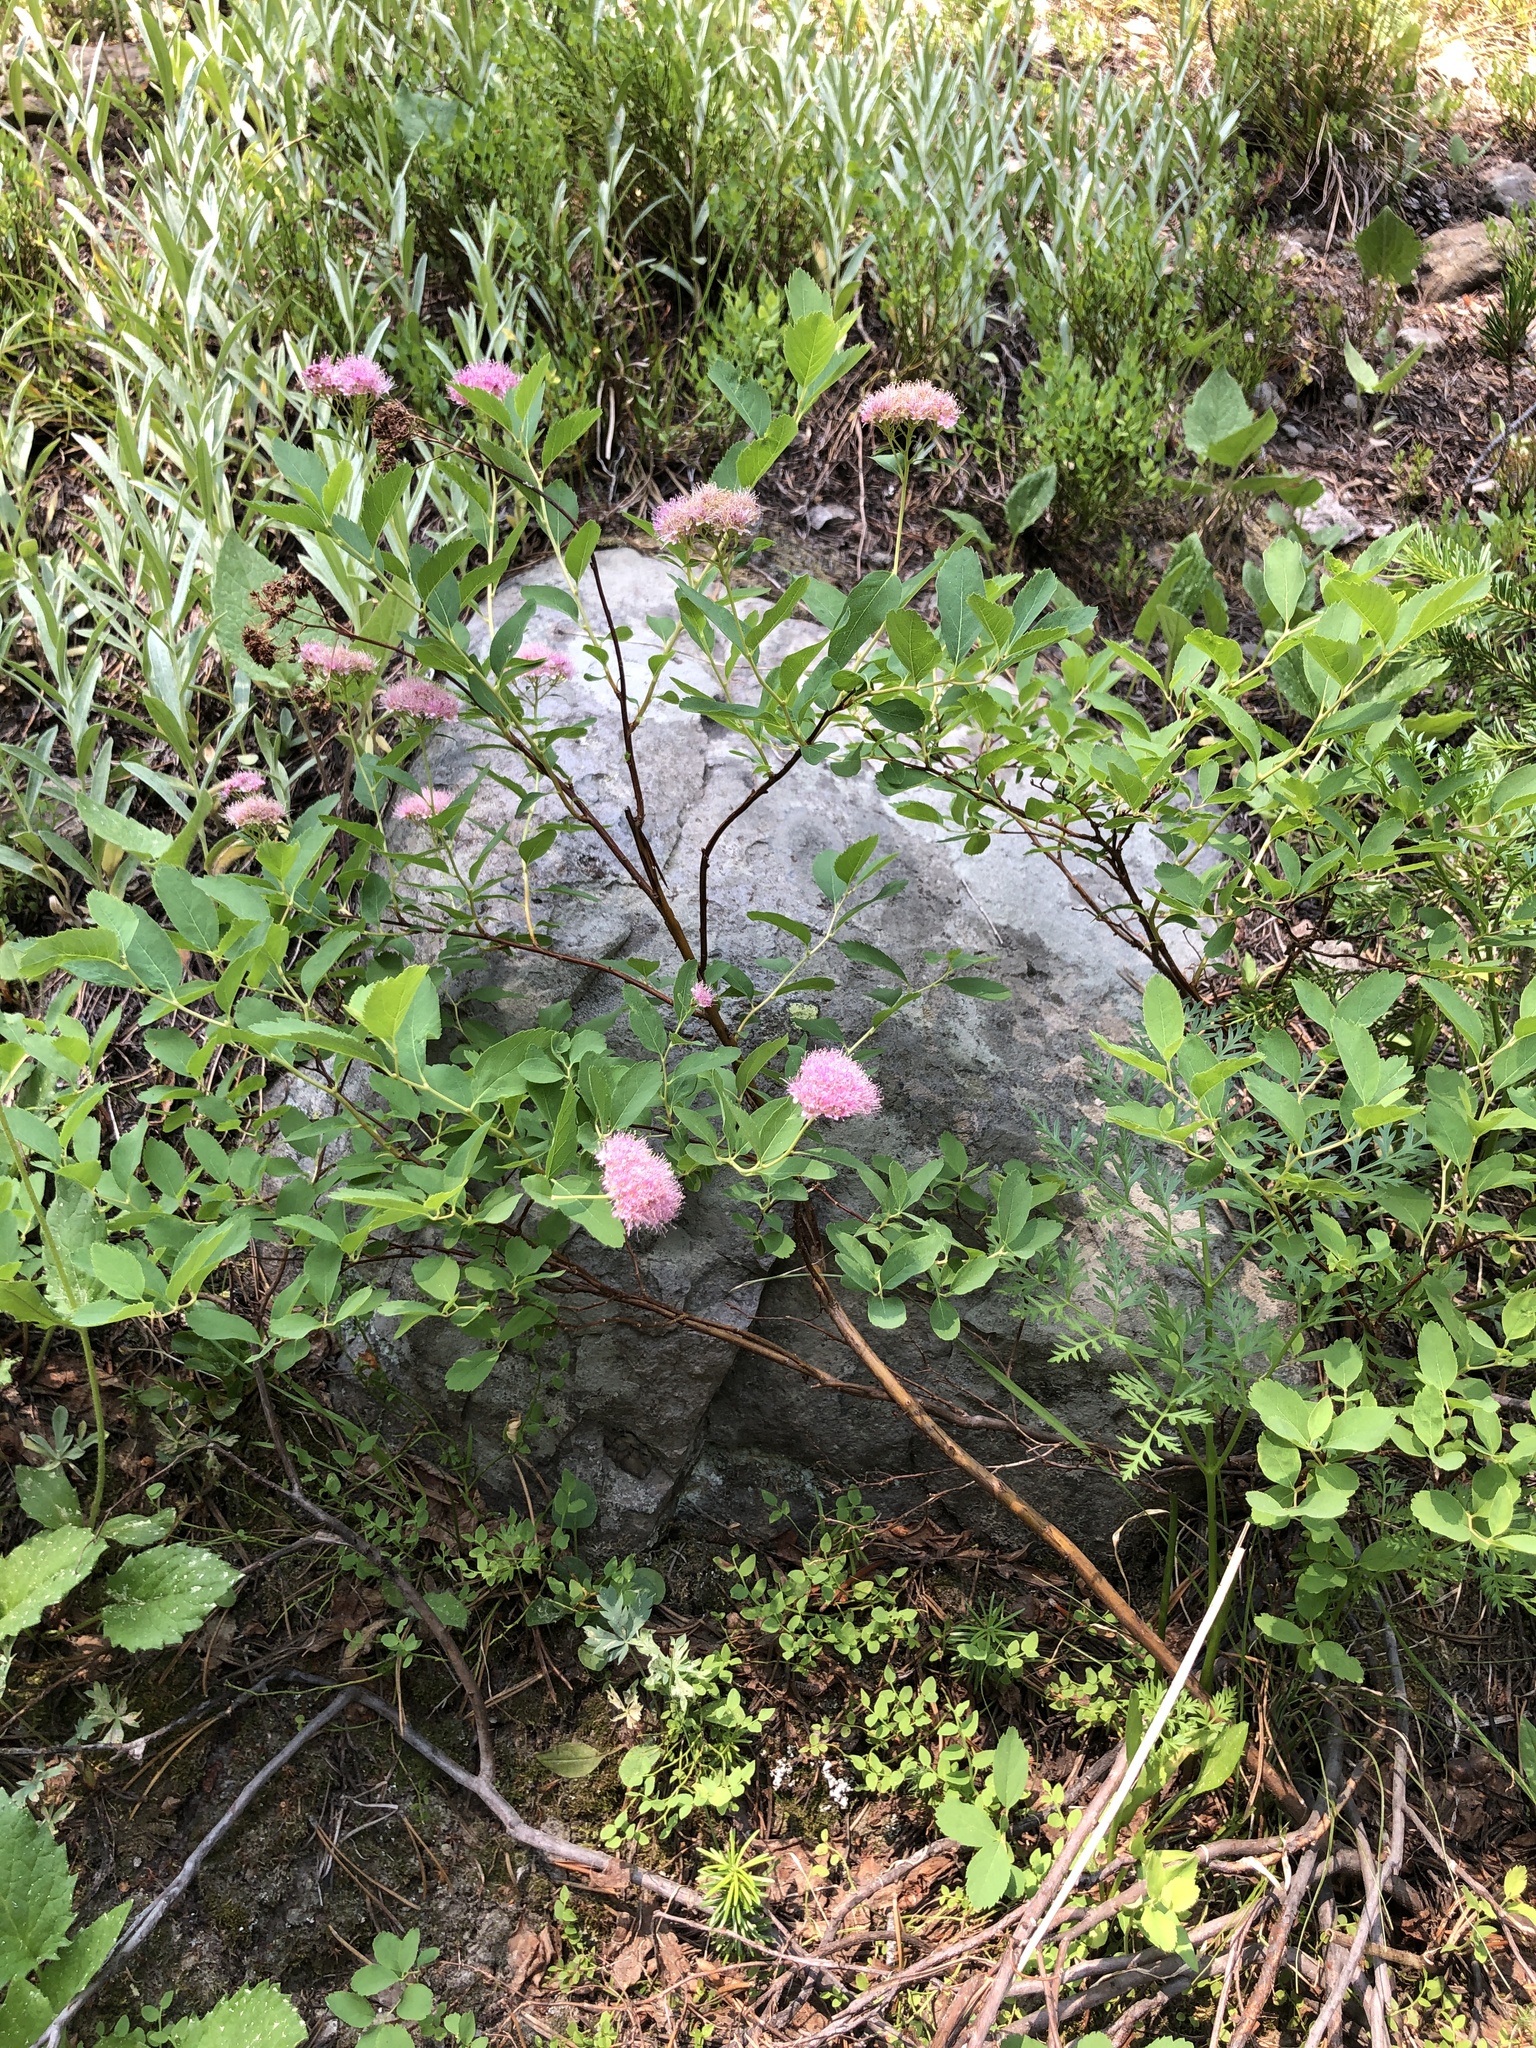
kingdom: Plantae
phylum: Tracheophyta
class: Magnoliopsida
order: Rosales
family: Rosaceae
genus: Spiraea
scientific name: Spiraea splendens
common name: Subalpine meadowsweet
